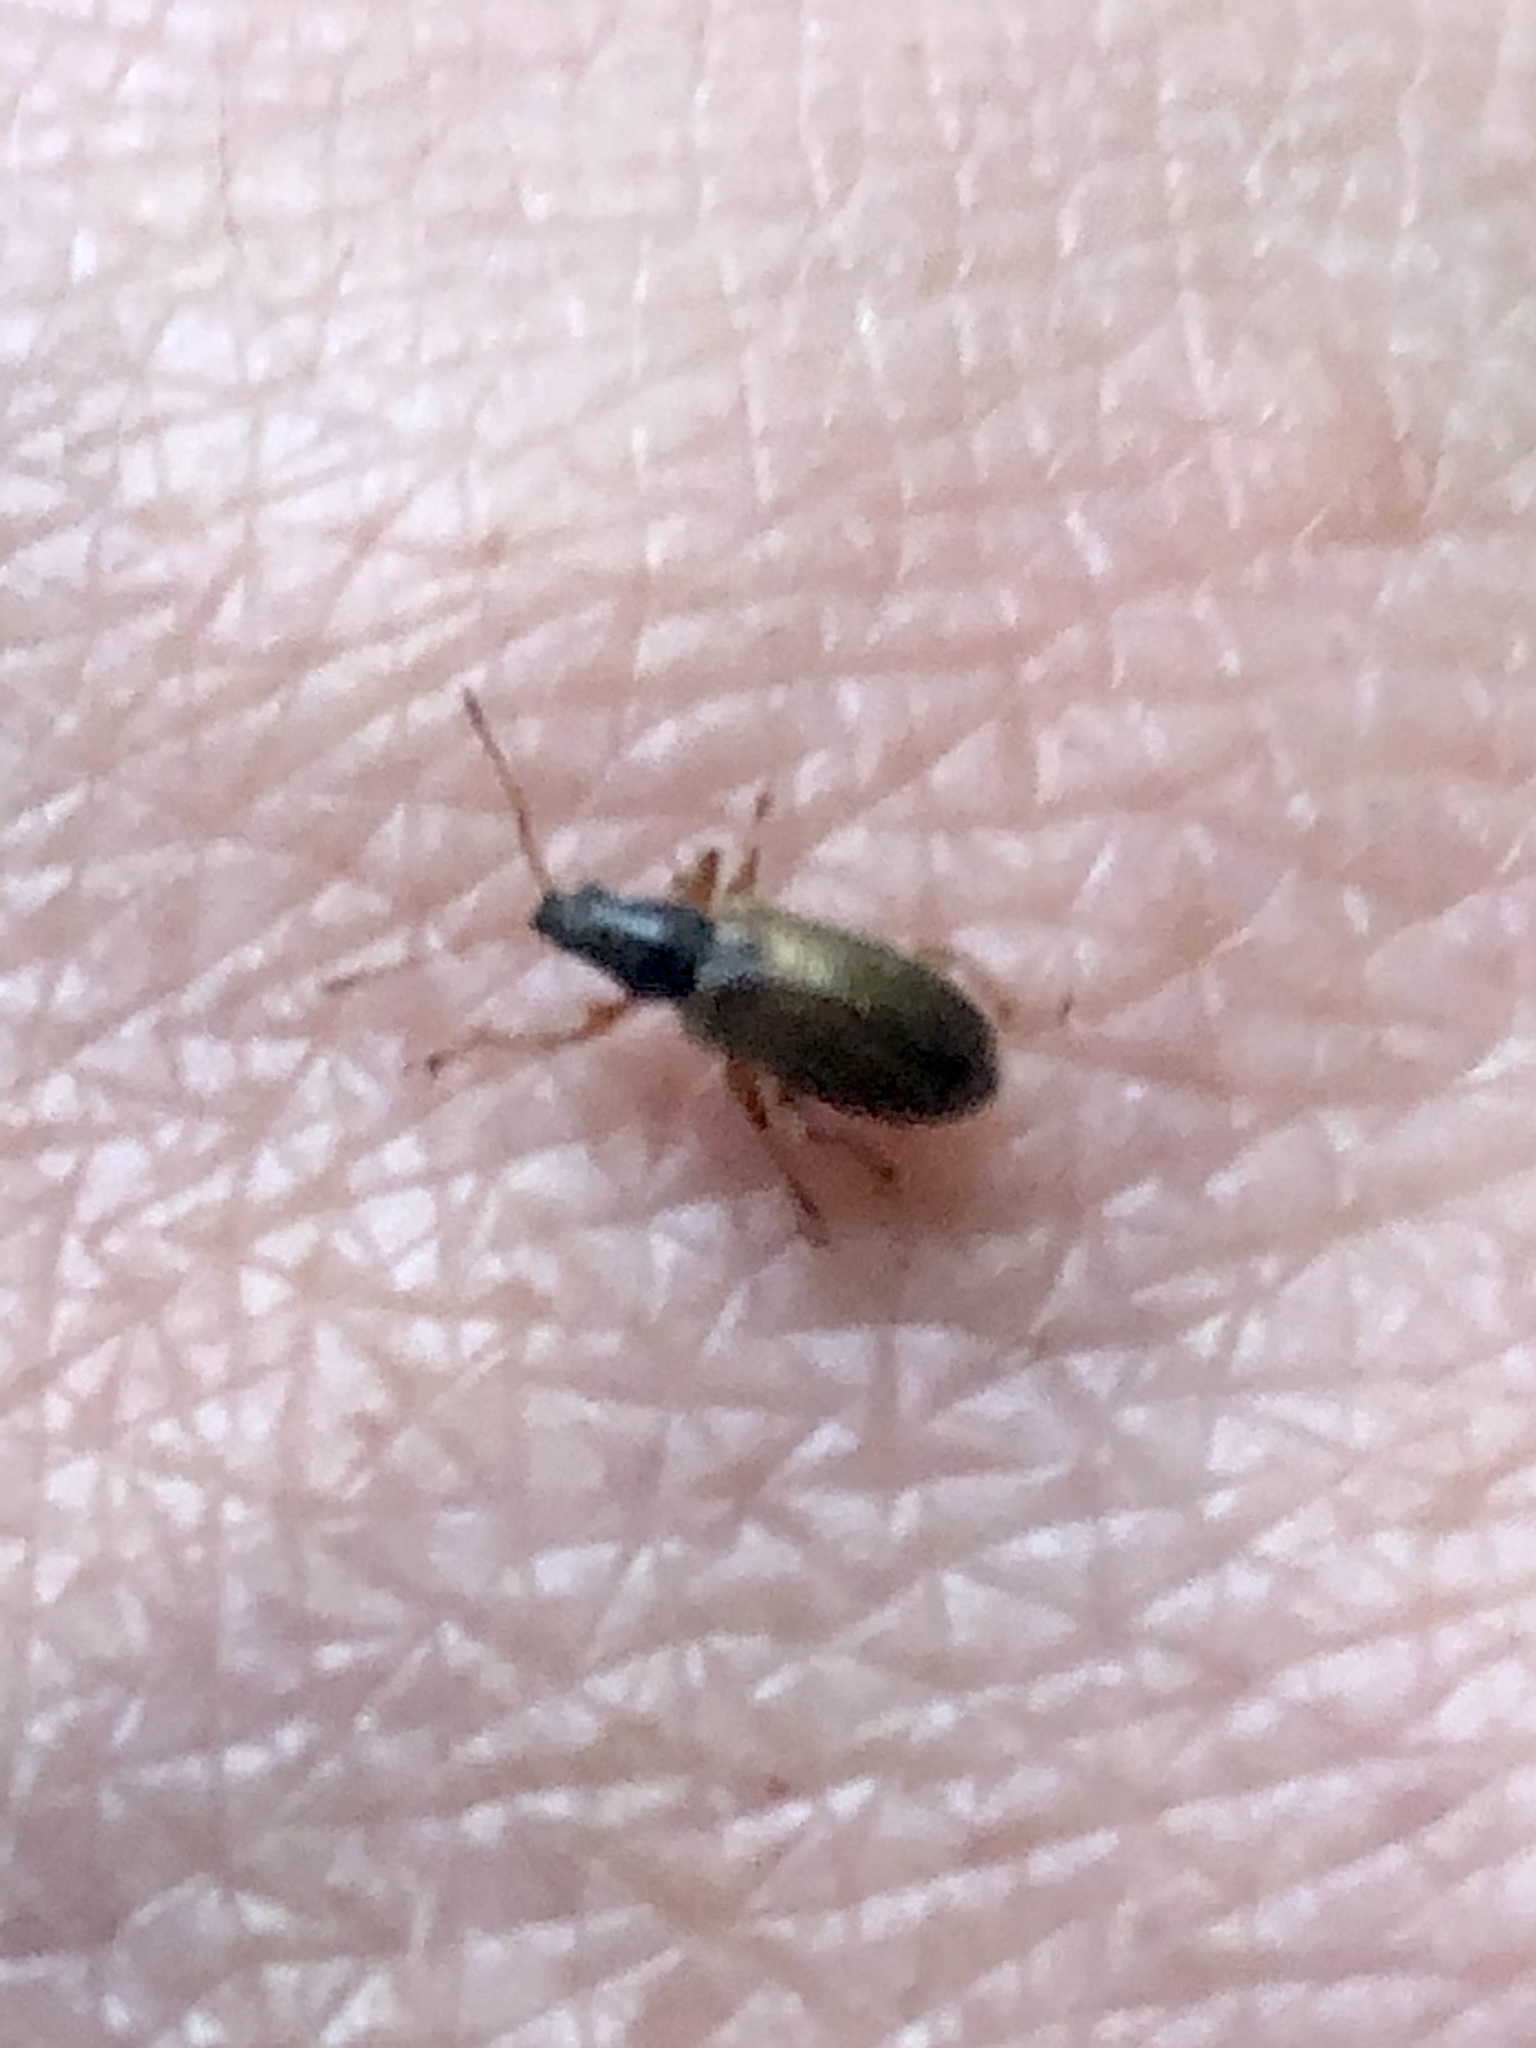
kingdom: Animalia
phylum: Arthropoda
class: Insecta
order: Coleoptera
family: Curculionidae
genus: Phyllobius
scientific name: Phyllobius oblongus
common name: Brown leaf weevil
